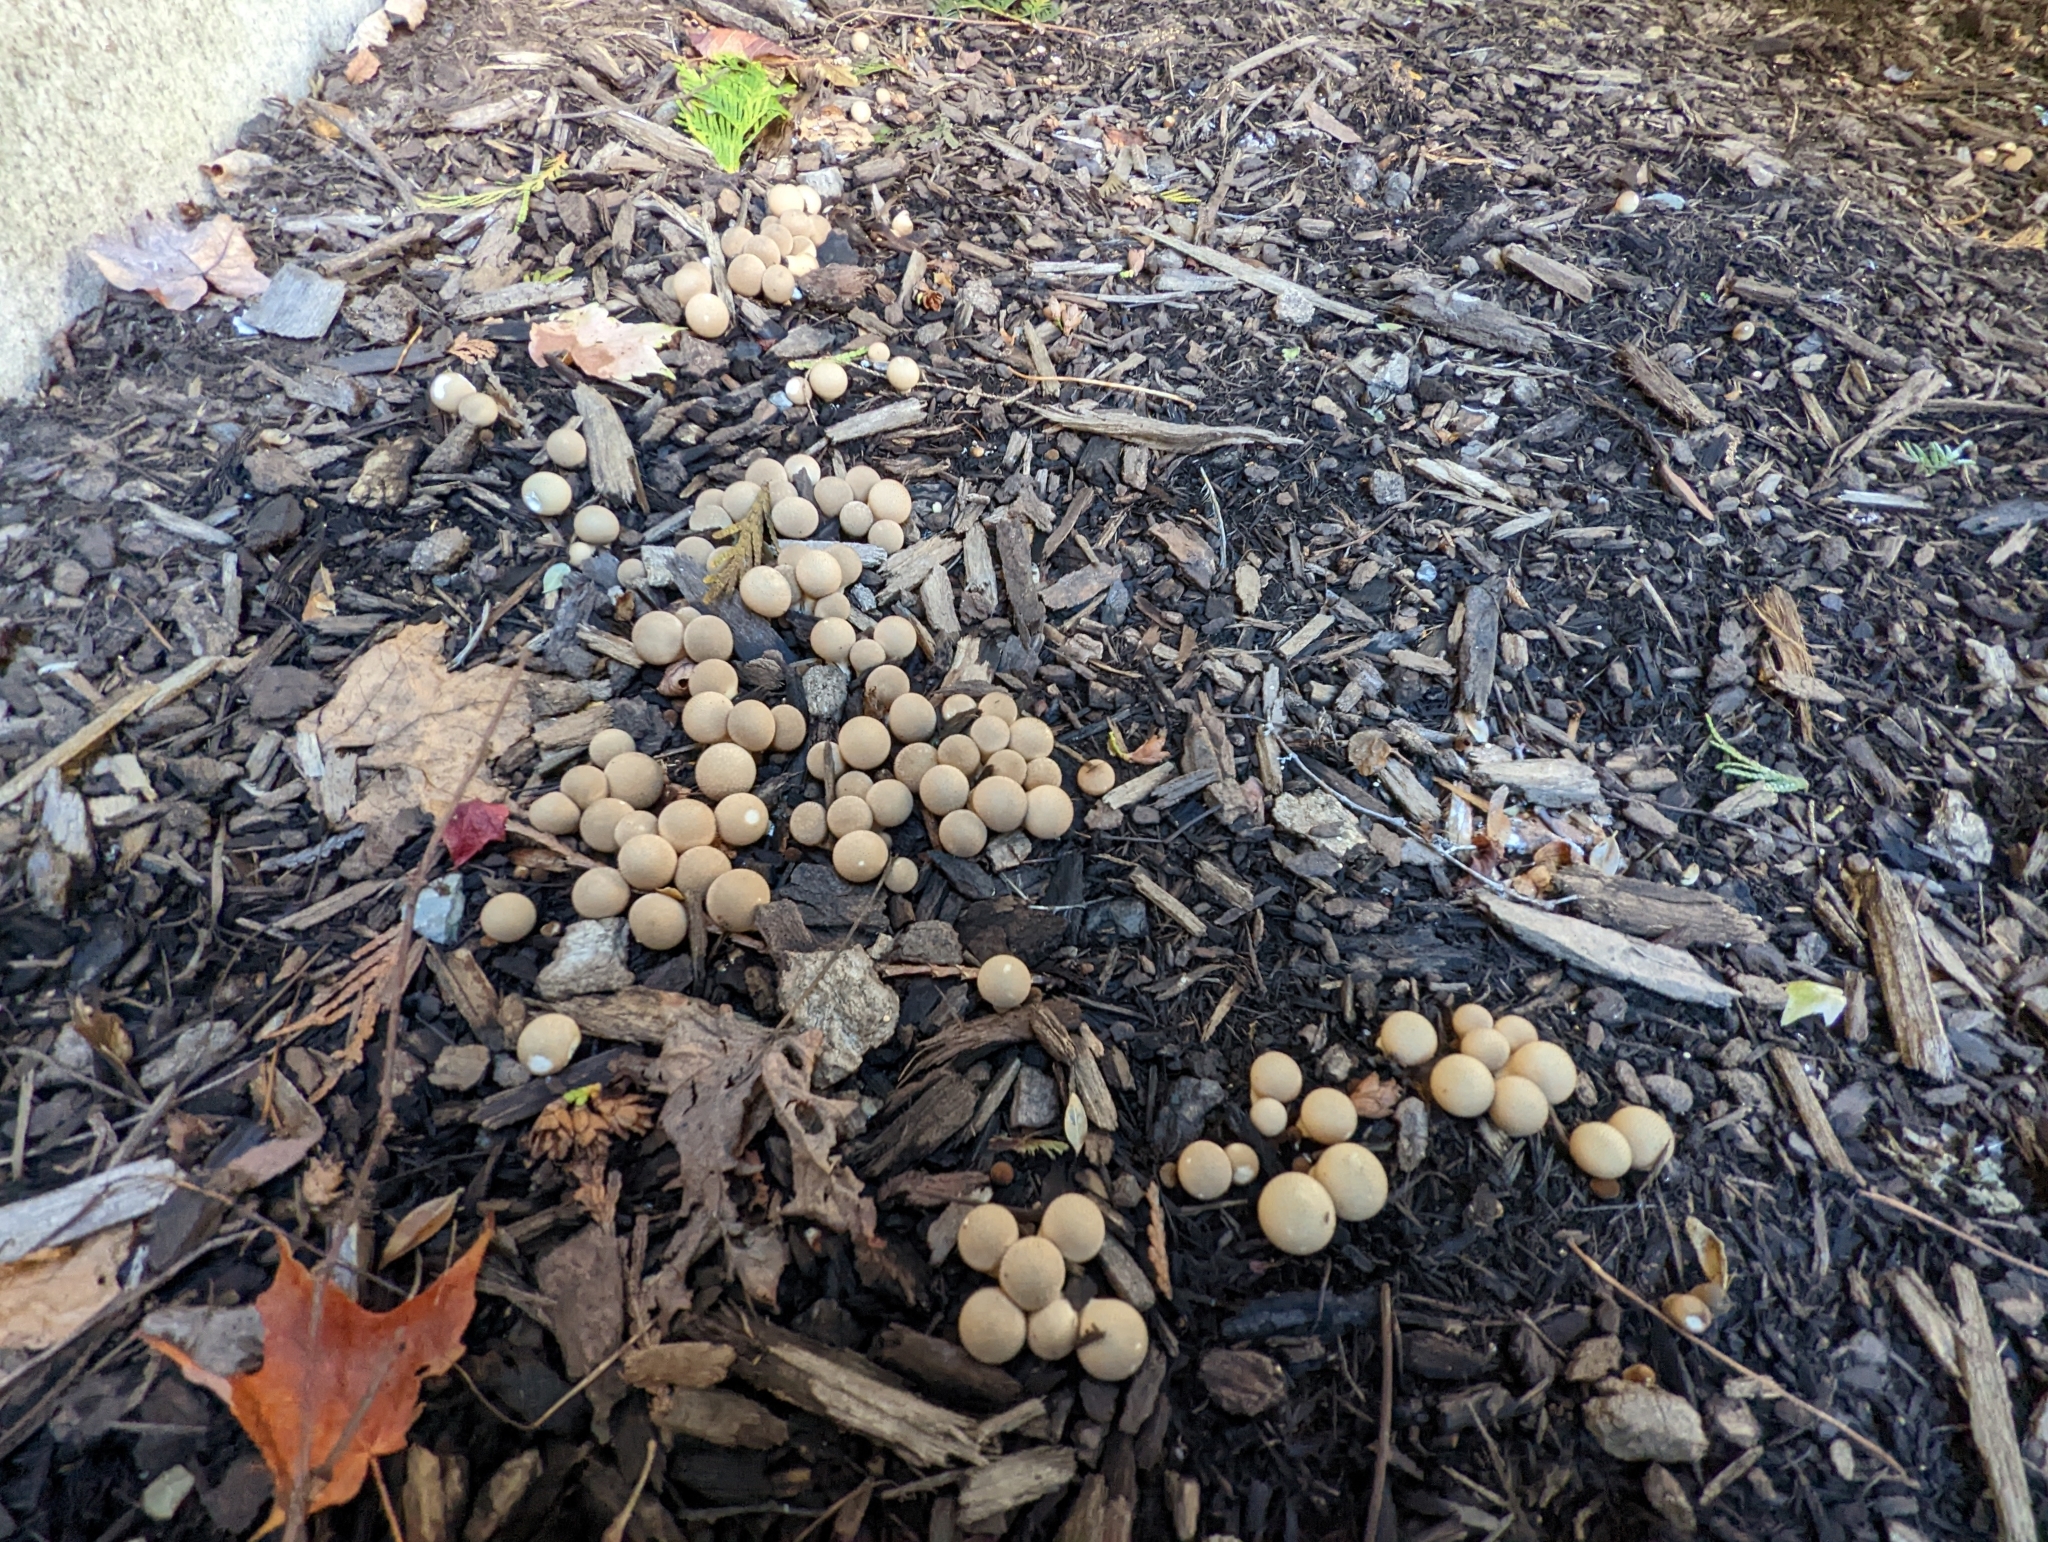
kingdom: Fungi
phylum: Basidiomycota
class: Agaricomycetes
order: Agaricales
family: Lycoperdaceae
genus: Apioperdon
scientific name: Apioperdon pyriforme
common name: Pear-shaped puffball
